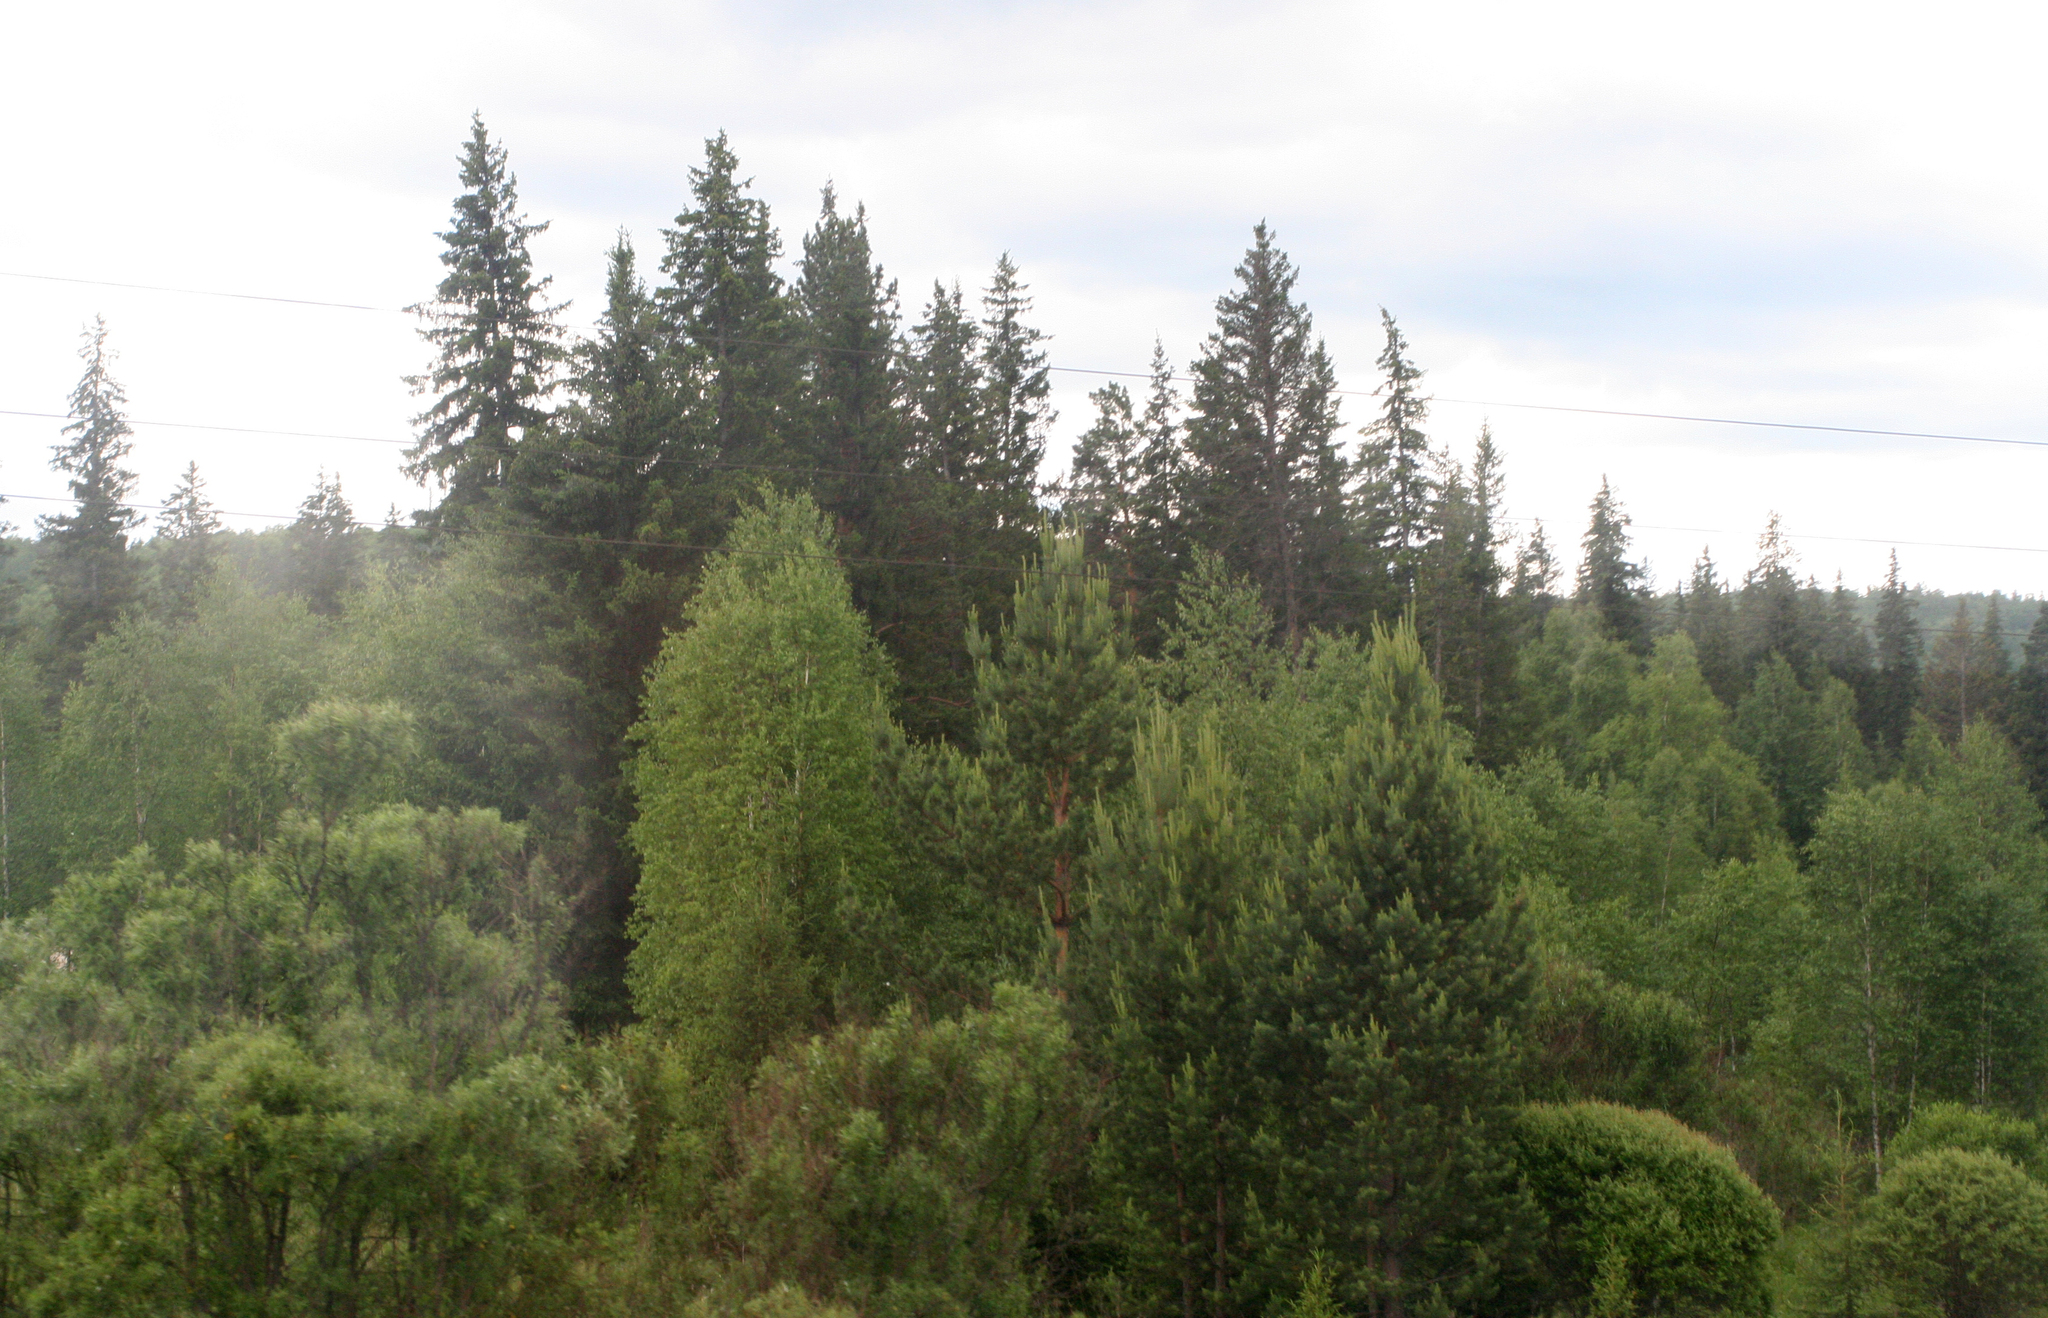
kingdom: Plantae
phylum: Tracheophyta
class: Pinopsida
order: Pinales
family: Pinaceae
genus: Picea
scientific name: Picea obovata
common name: Siberian spruce
